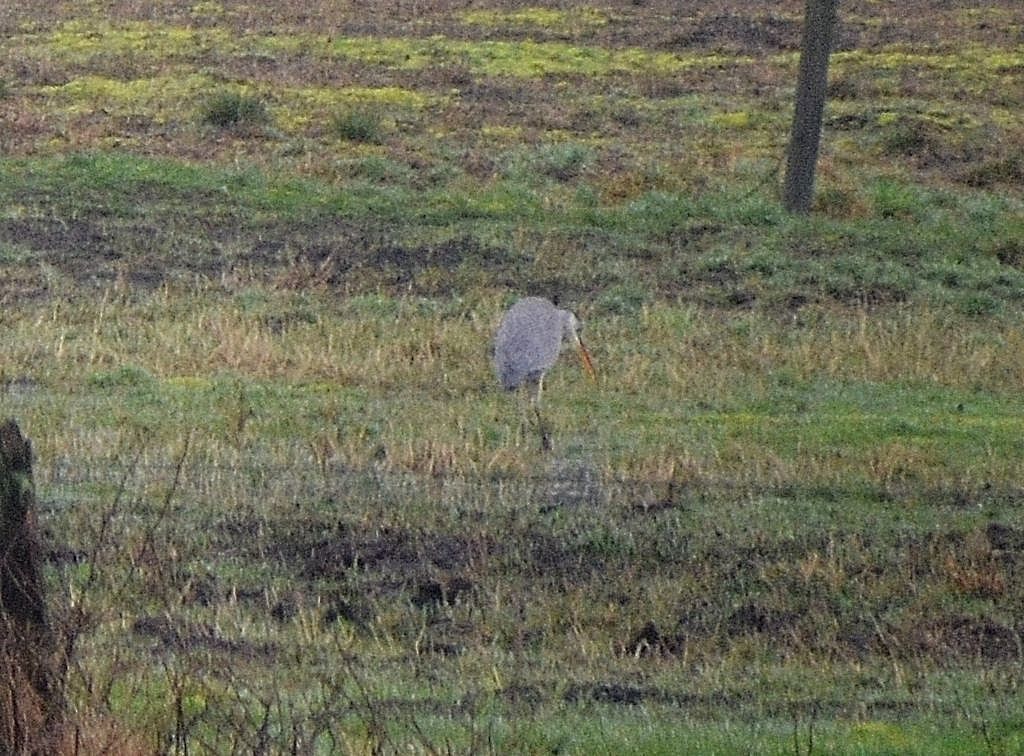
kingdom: Animalia
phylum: Chordata
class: Aves
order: Pelecaniformes
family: Ardeidae
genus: Ardea
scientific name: Ardea cinerea
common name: Grey heron
